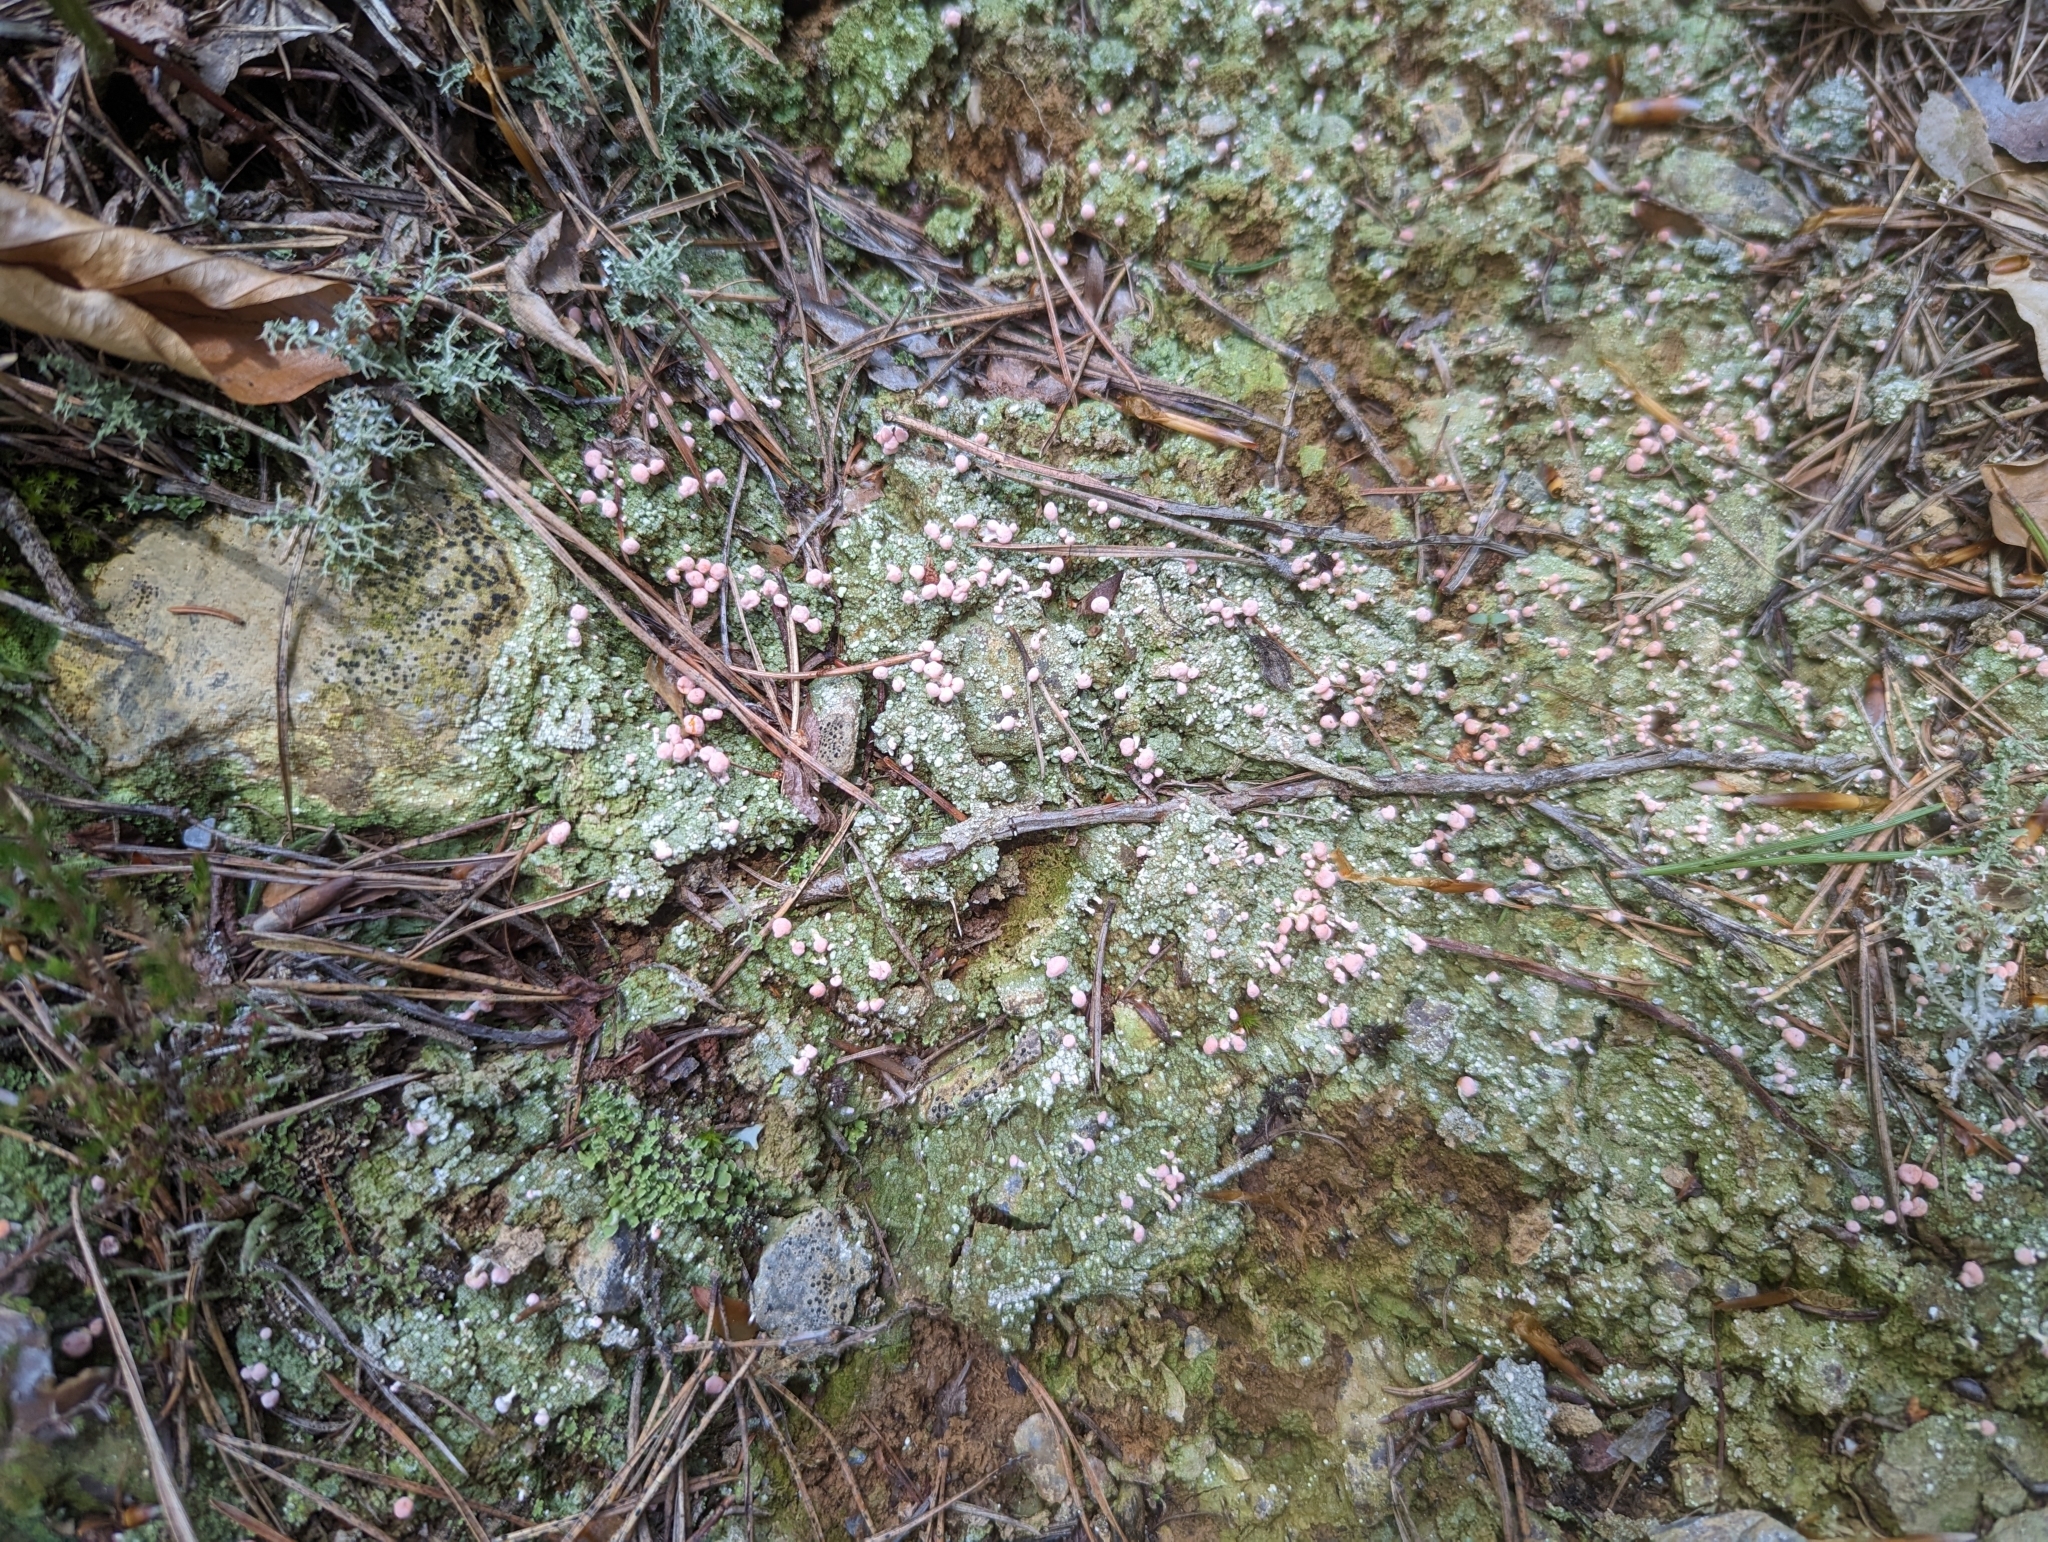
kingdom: Fungi
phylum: Ascomycota
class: Lecanoromycetes
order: Pertusariales
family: Icmadophilaceae
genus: Dibaeis
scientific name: Dibaeis baeomyces
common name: Pink earth lichen
